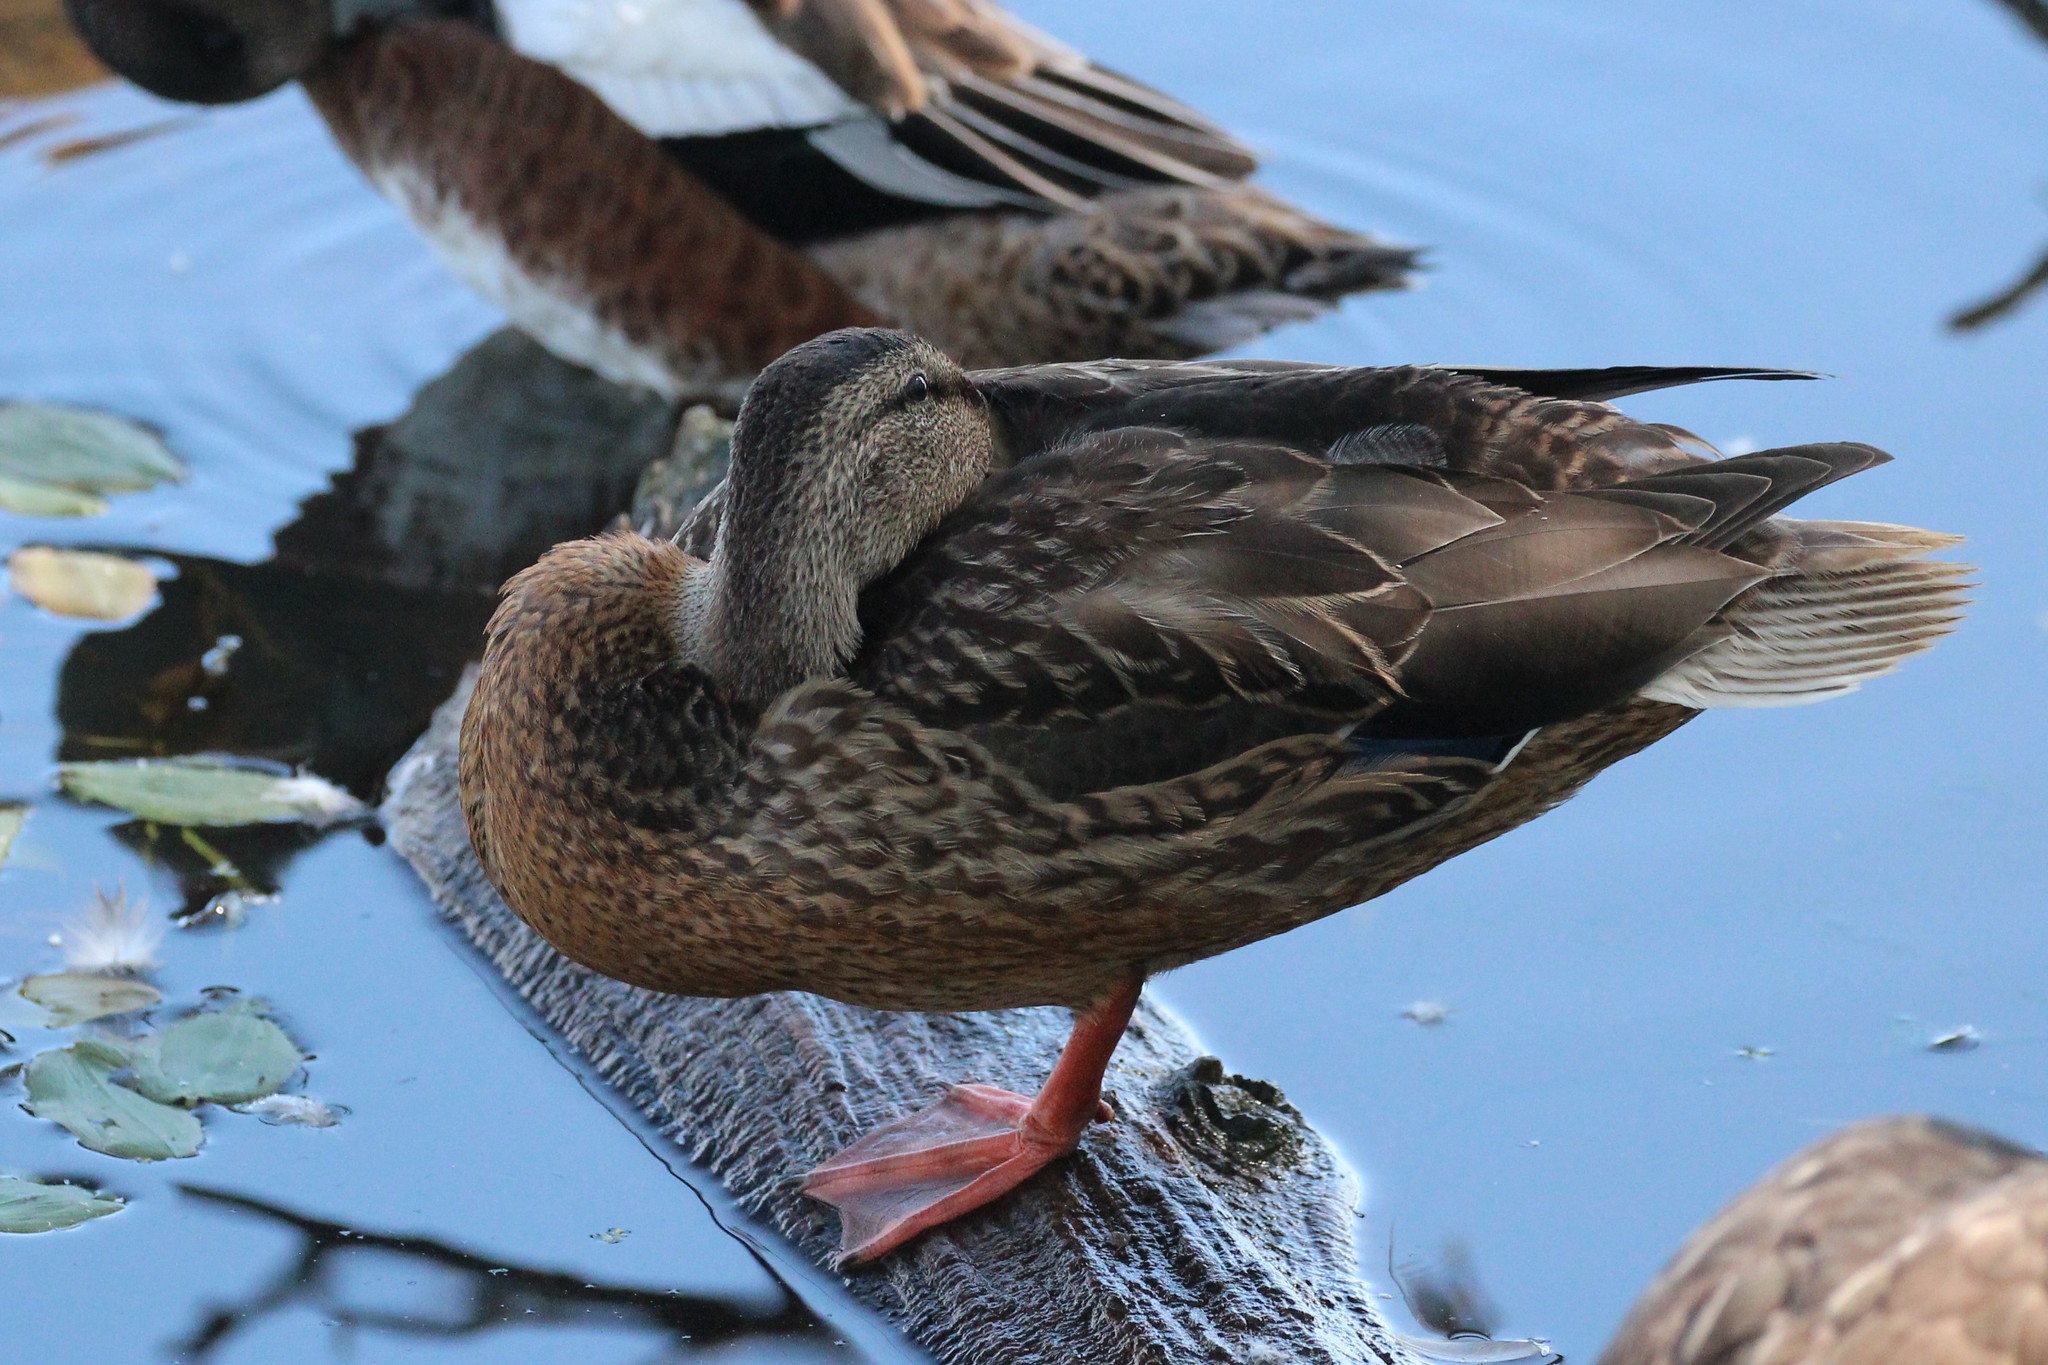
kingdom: Animalia
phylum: Chordata
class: Aves
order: Anseriformes
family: Anatidae
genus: Anas
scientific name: Anas platyrhynchos
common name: Mallard
